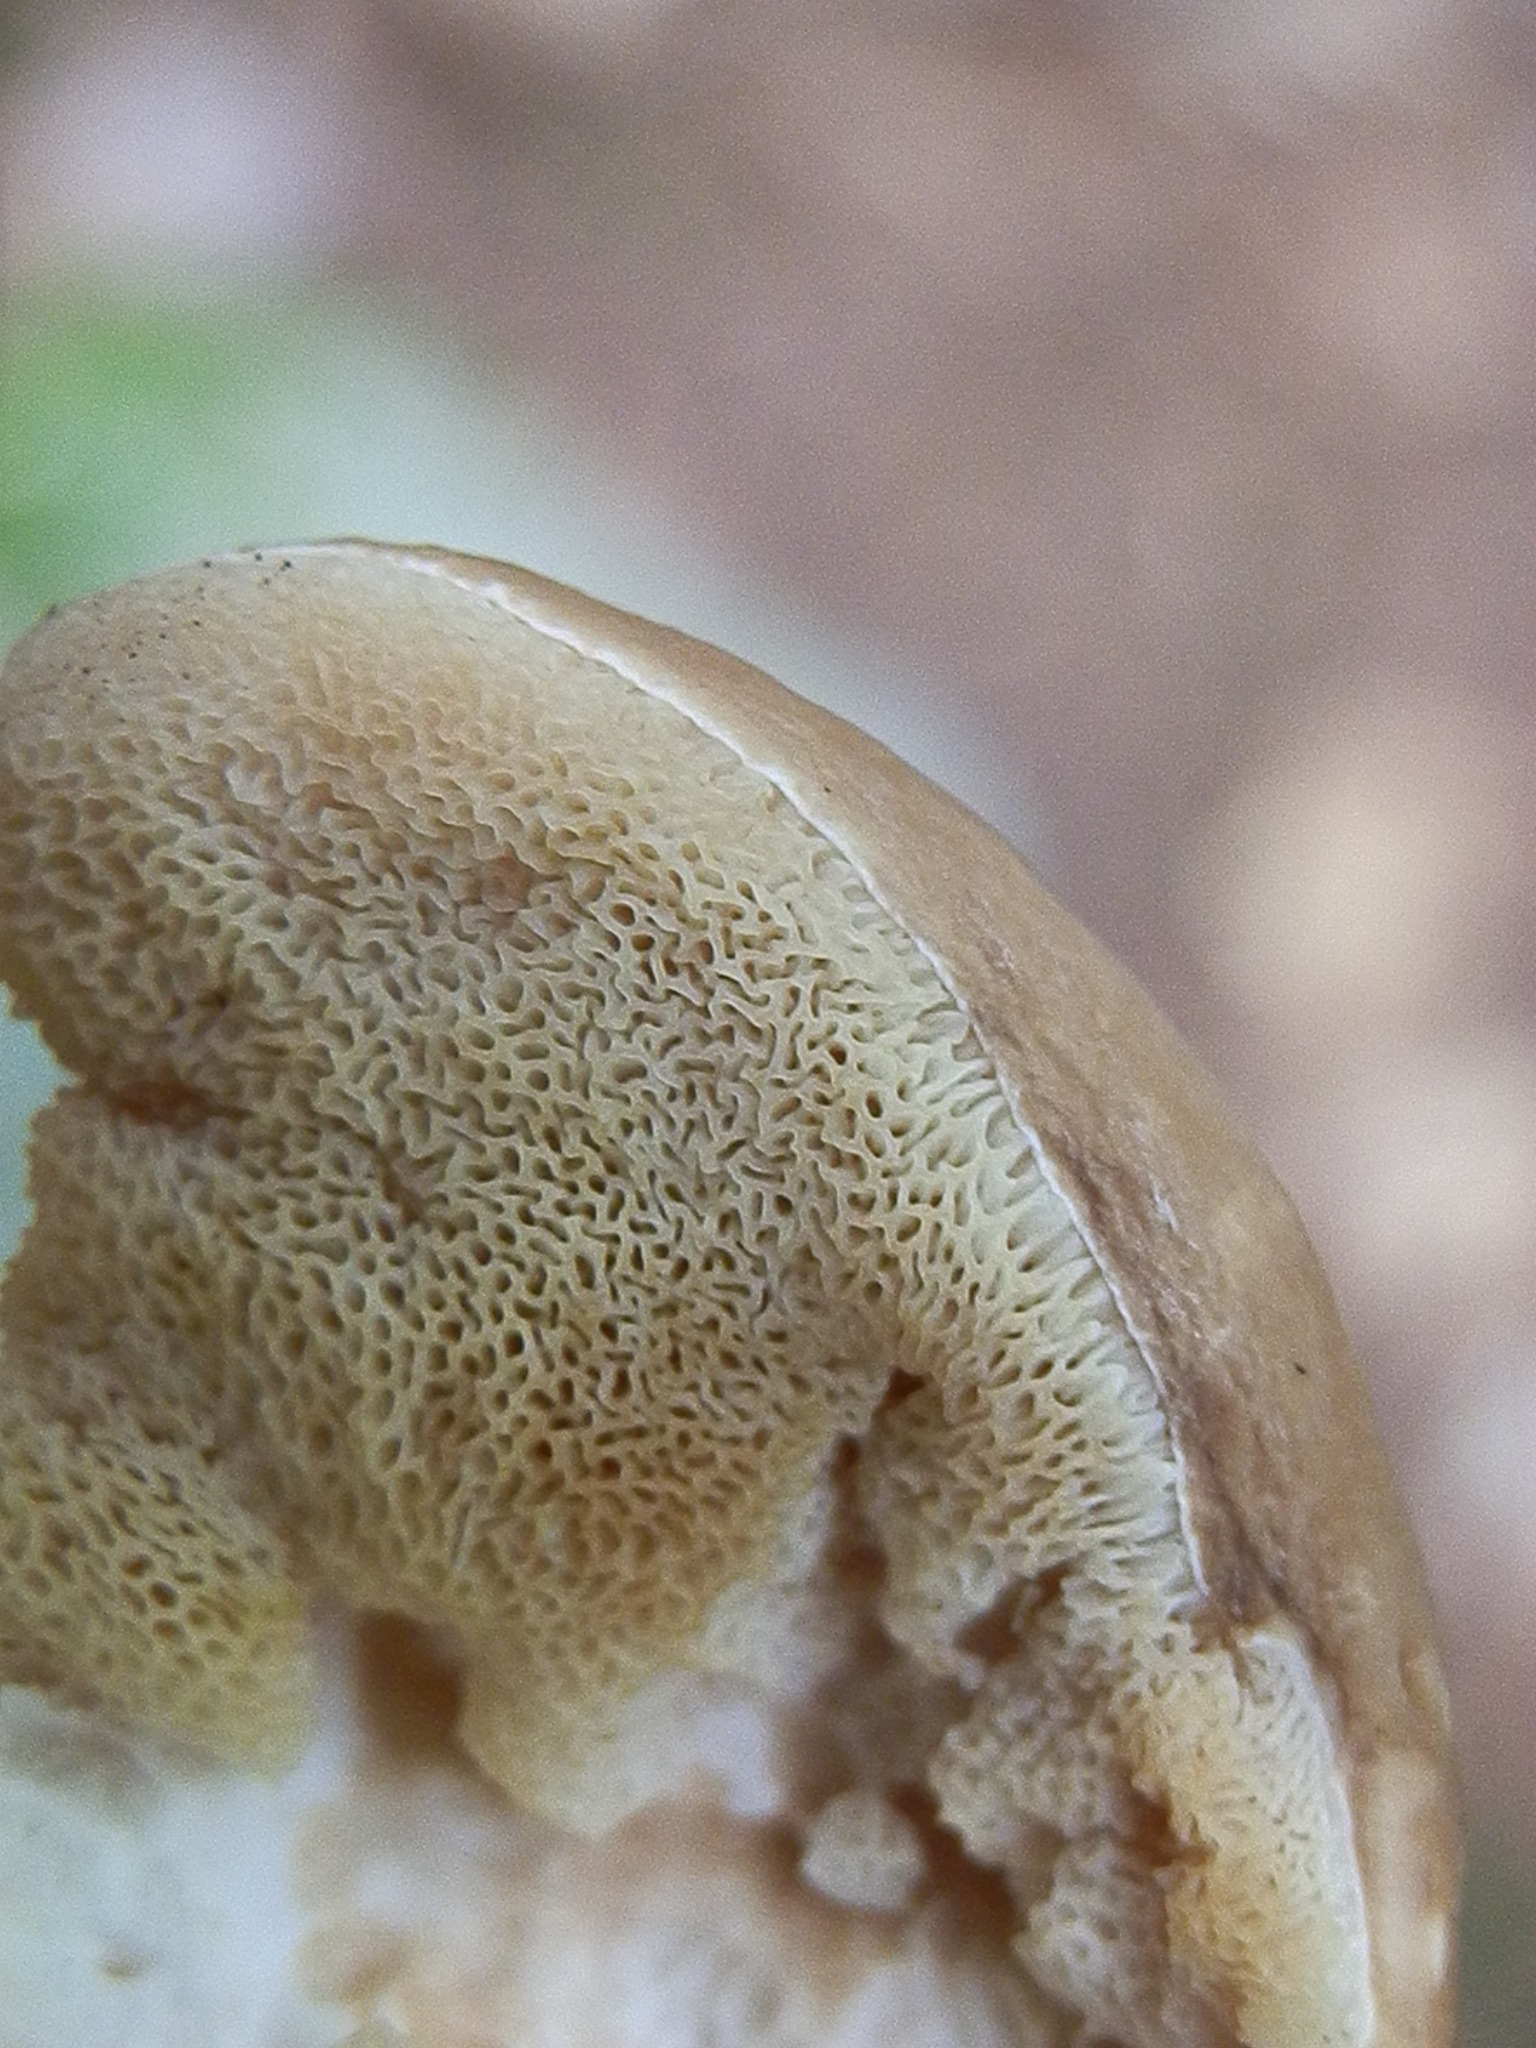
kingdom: Fungi
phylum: Basidiomycota
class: Agaricomycetes
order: Boletales
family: Boletaceae
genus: Xanthoconium
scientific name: Xanthoconium affine
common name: Spotted bolete
